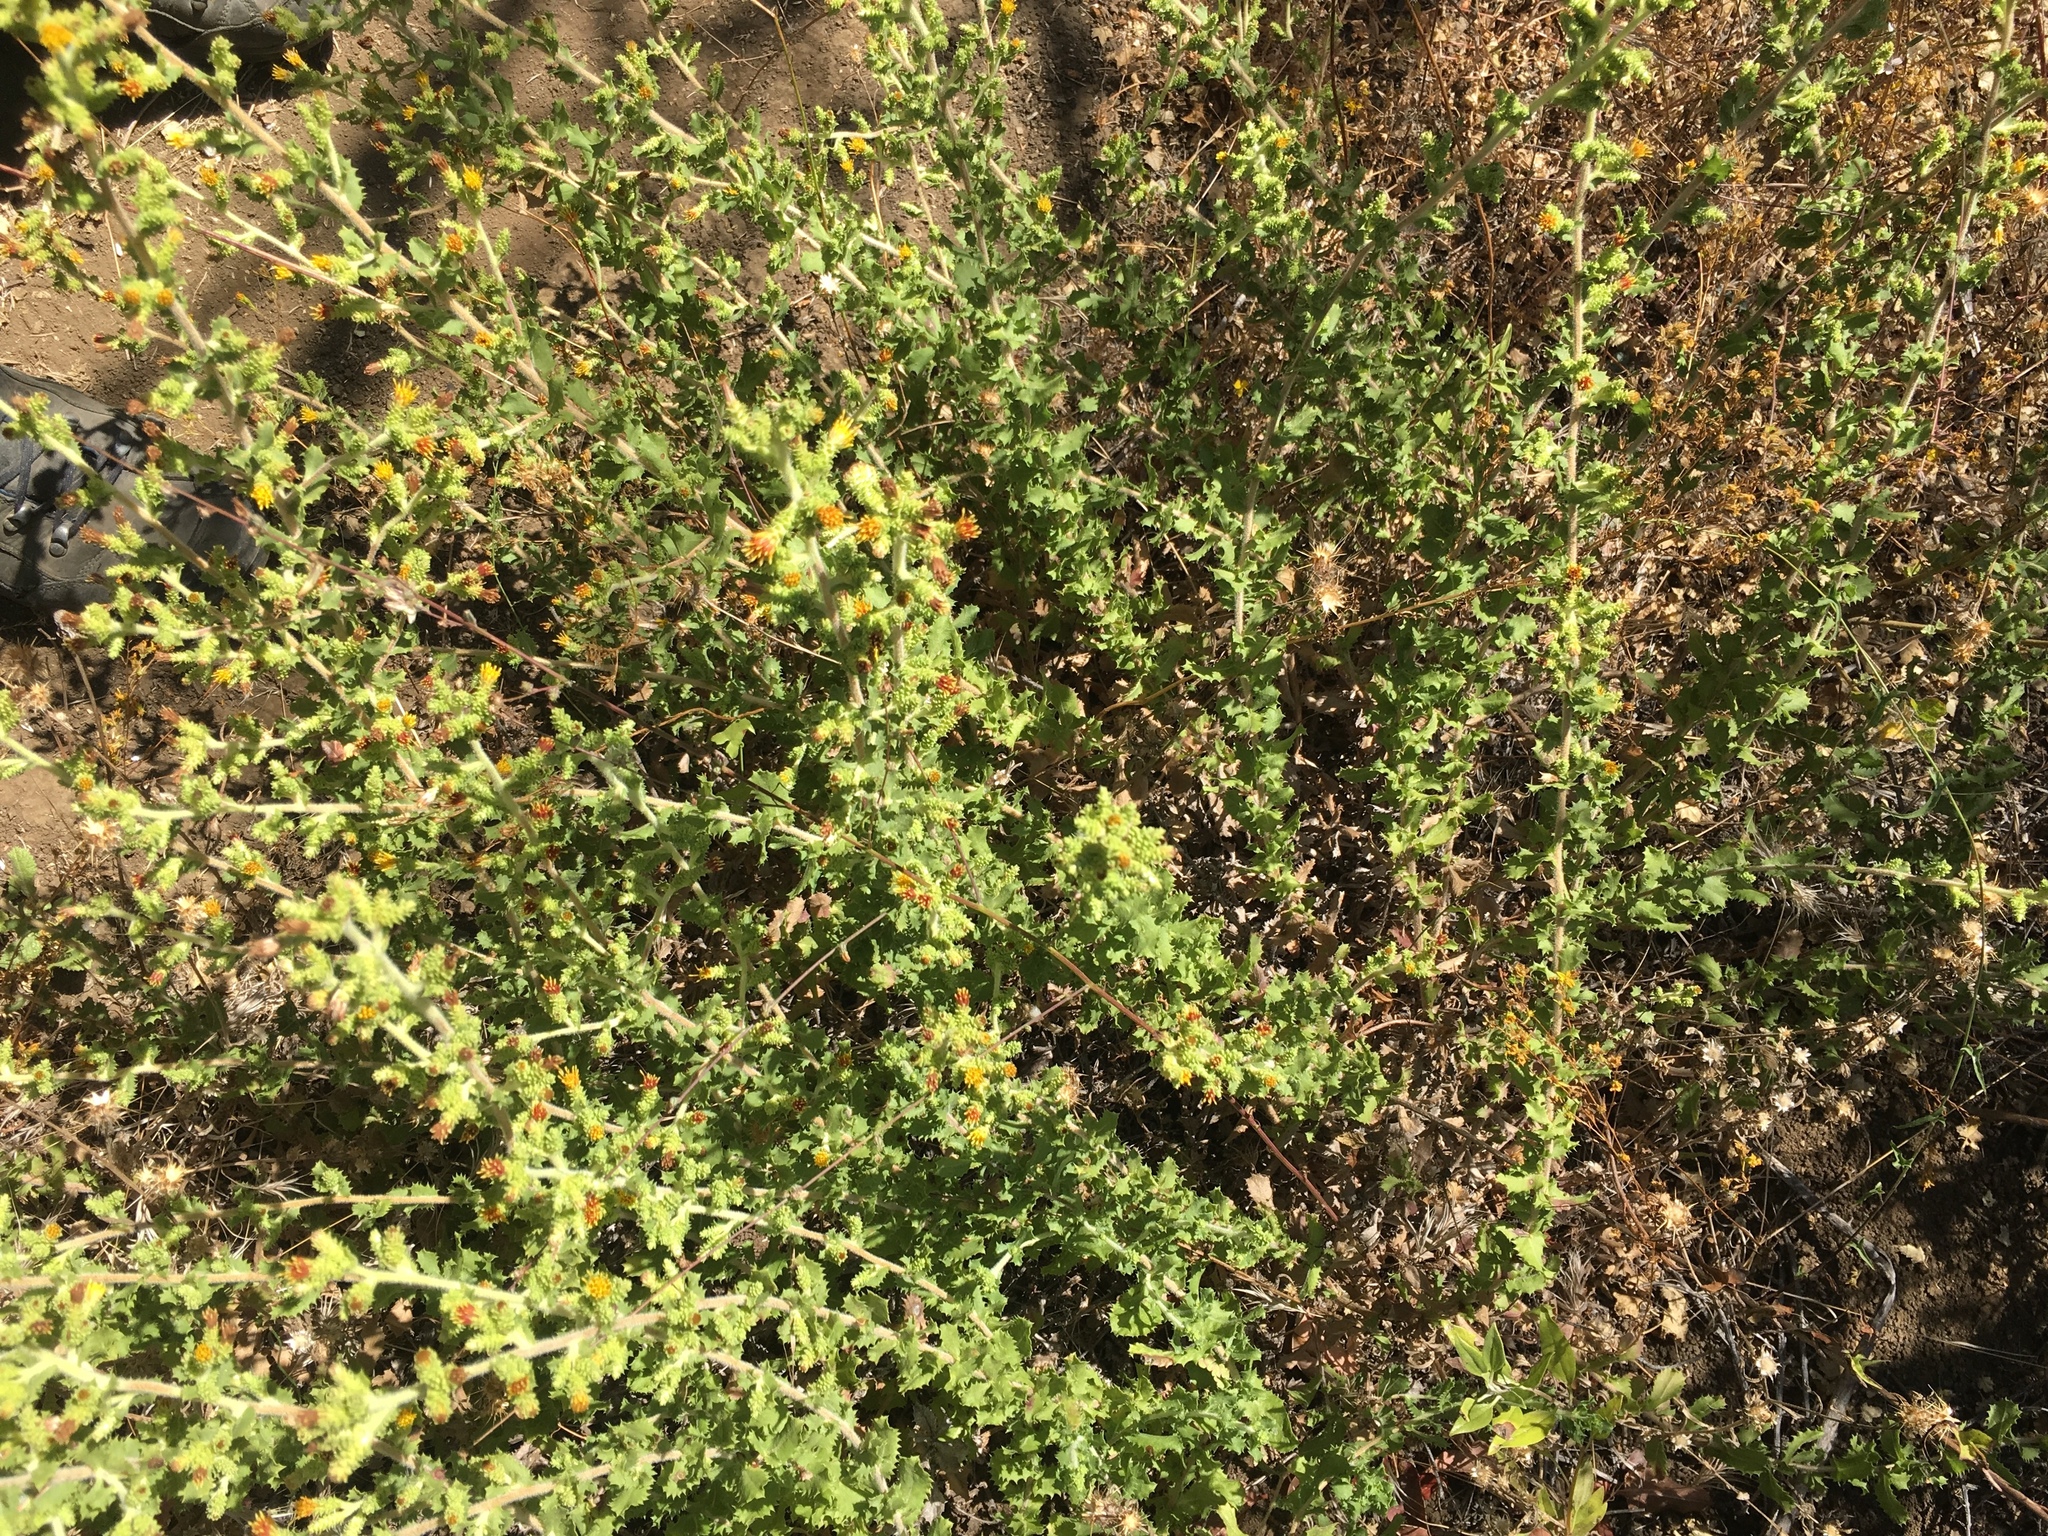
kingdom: Plantae
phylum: Tracheophyta
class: Magnoliopsida
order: Asterales
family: Asteraceae
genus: Hazardia
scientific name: Hazardia squarrosa
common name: Saw-tooth goldenbush
